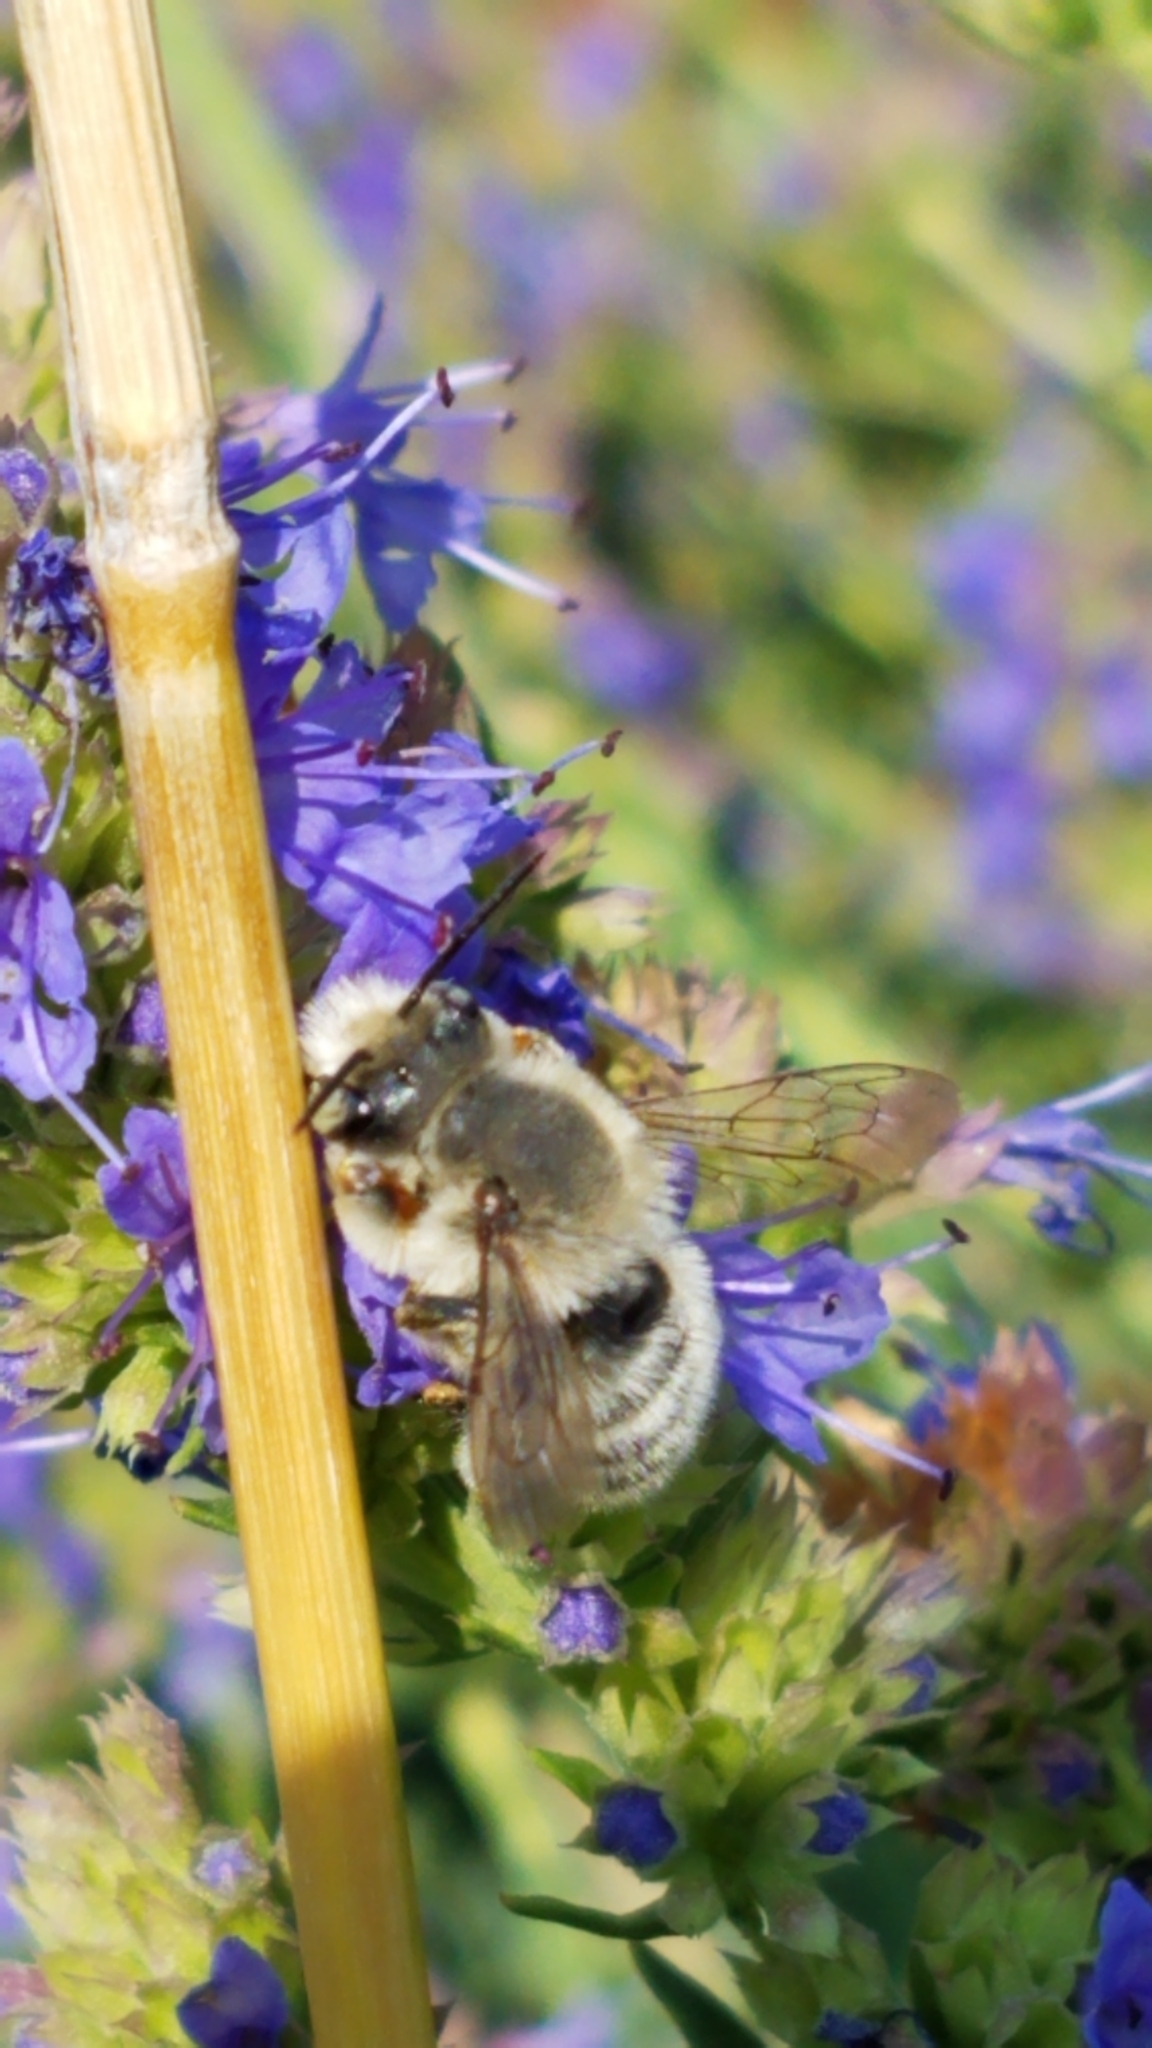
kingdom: Animalia
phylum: Arthropoda
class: Insecta
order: Hymenoptera
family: Megachilidae
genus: Megachile
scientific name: Megachile perihirta
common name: Western leafcutter
